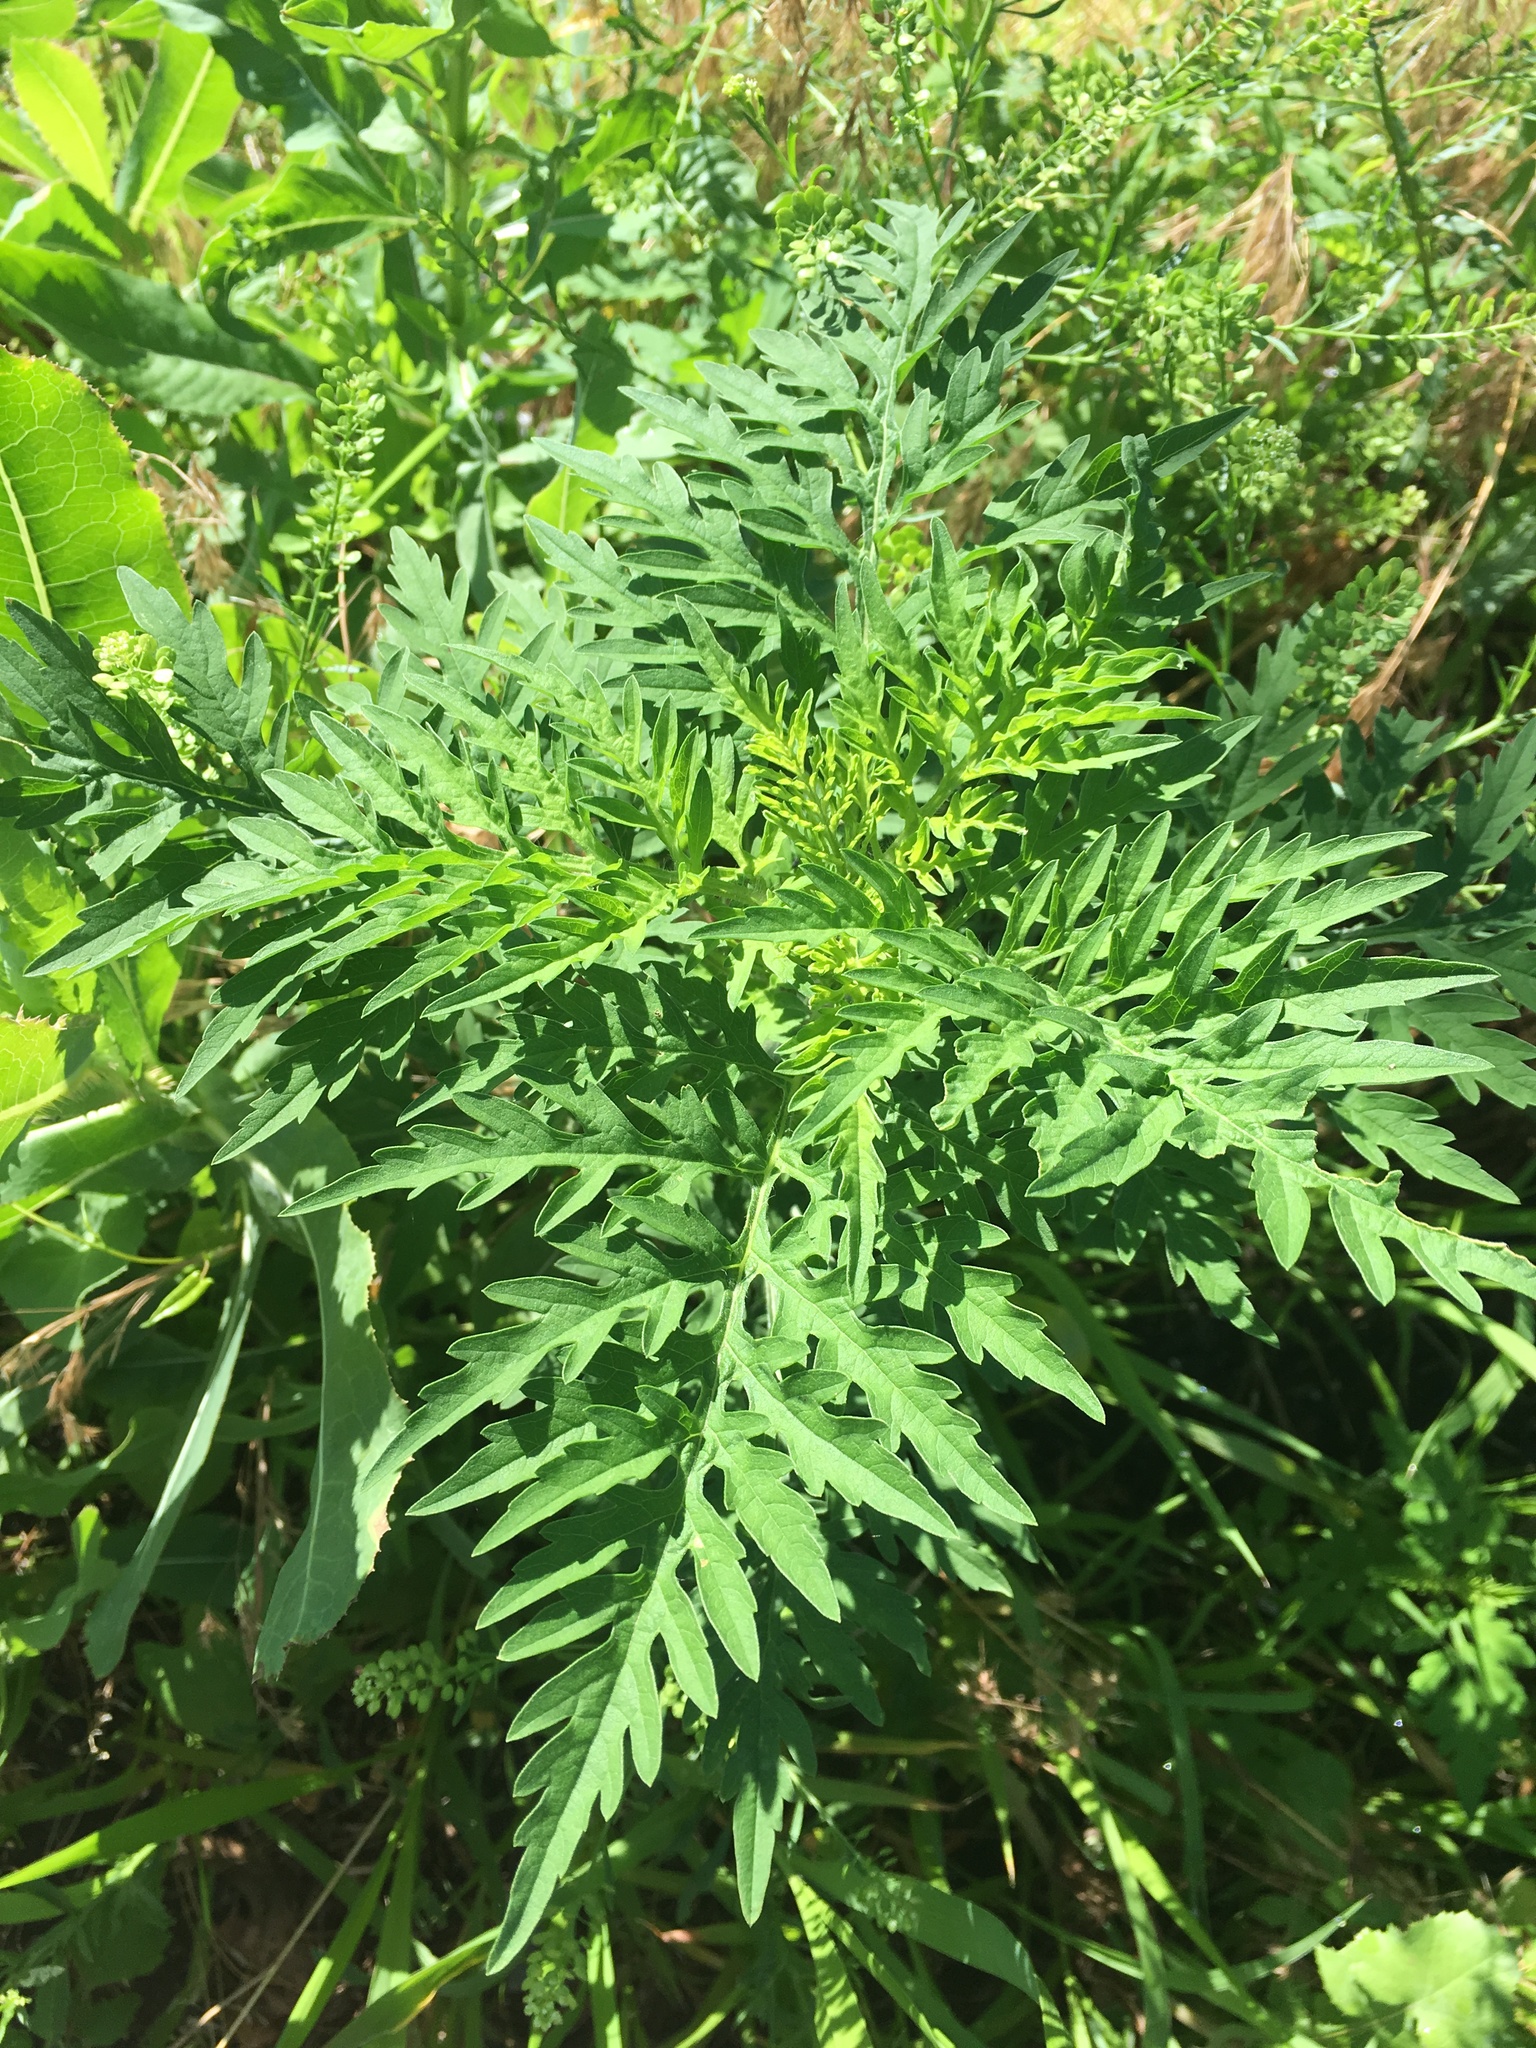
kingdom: Plantae
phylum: Tracheophyta
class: Magnoliopsida
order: Asterales
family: Asteraceae
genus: Ambrosia
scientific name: Ambrosia artemisiifolia
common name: Annual ragweed
